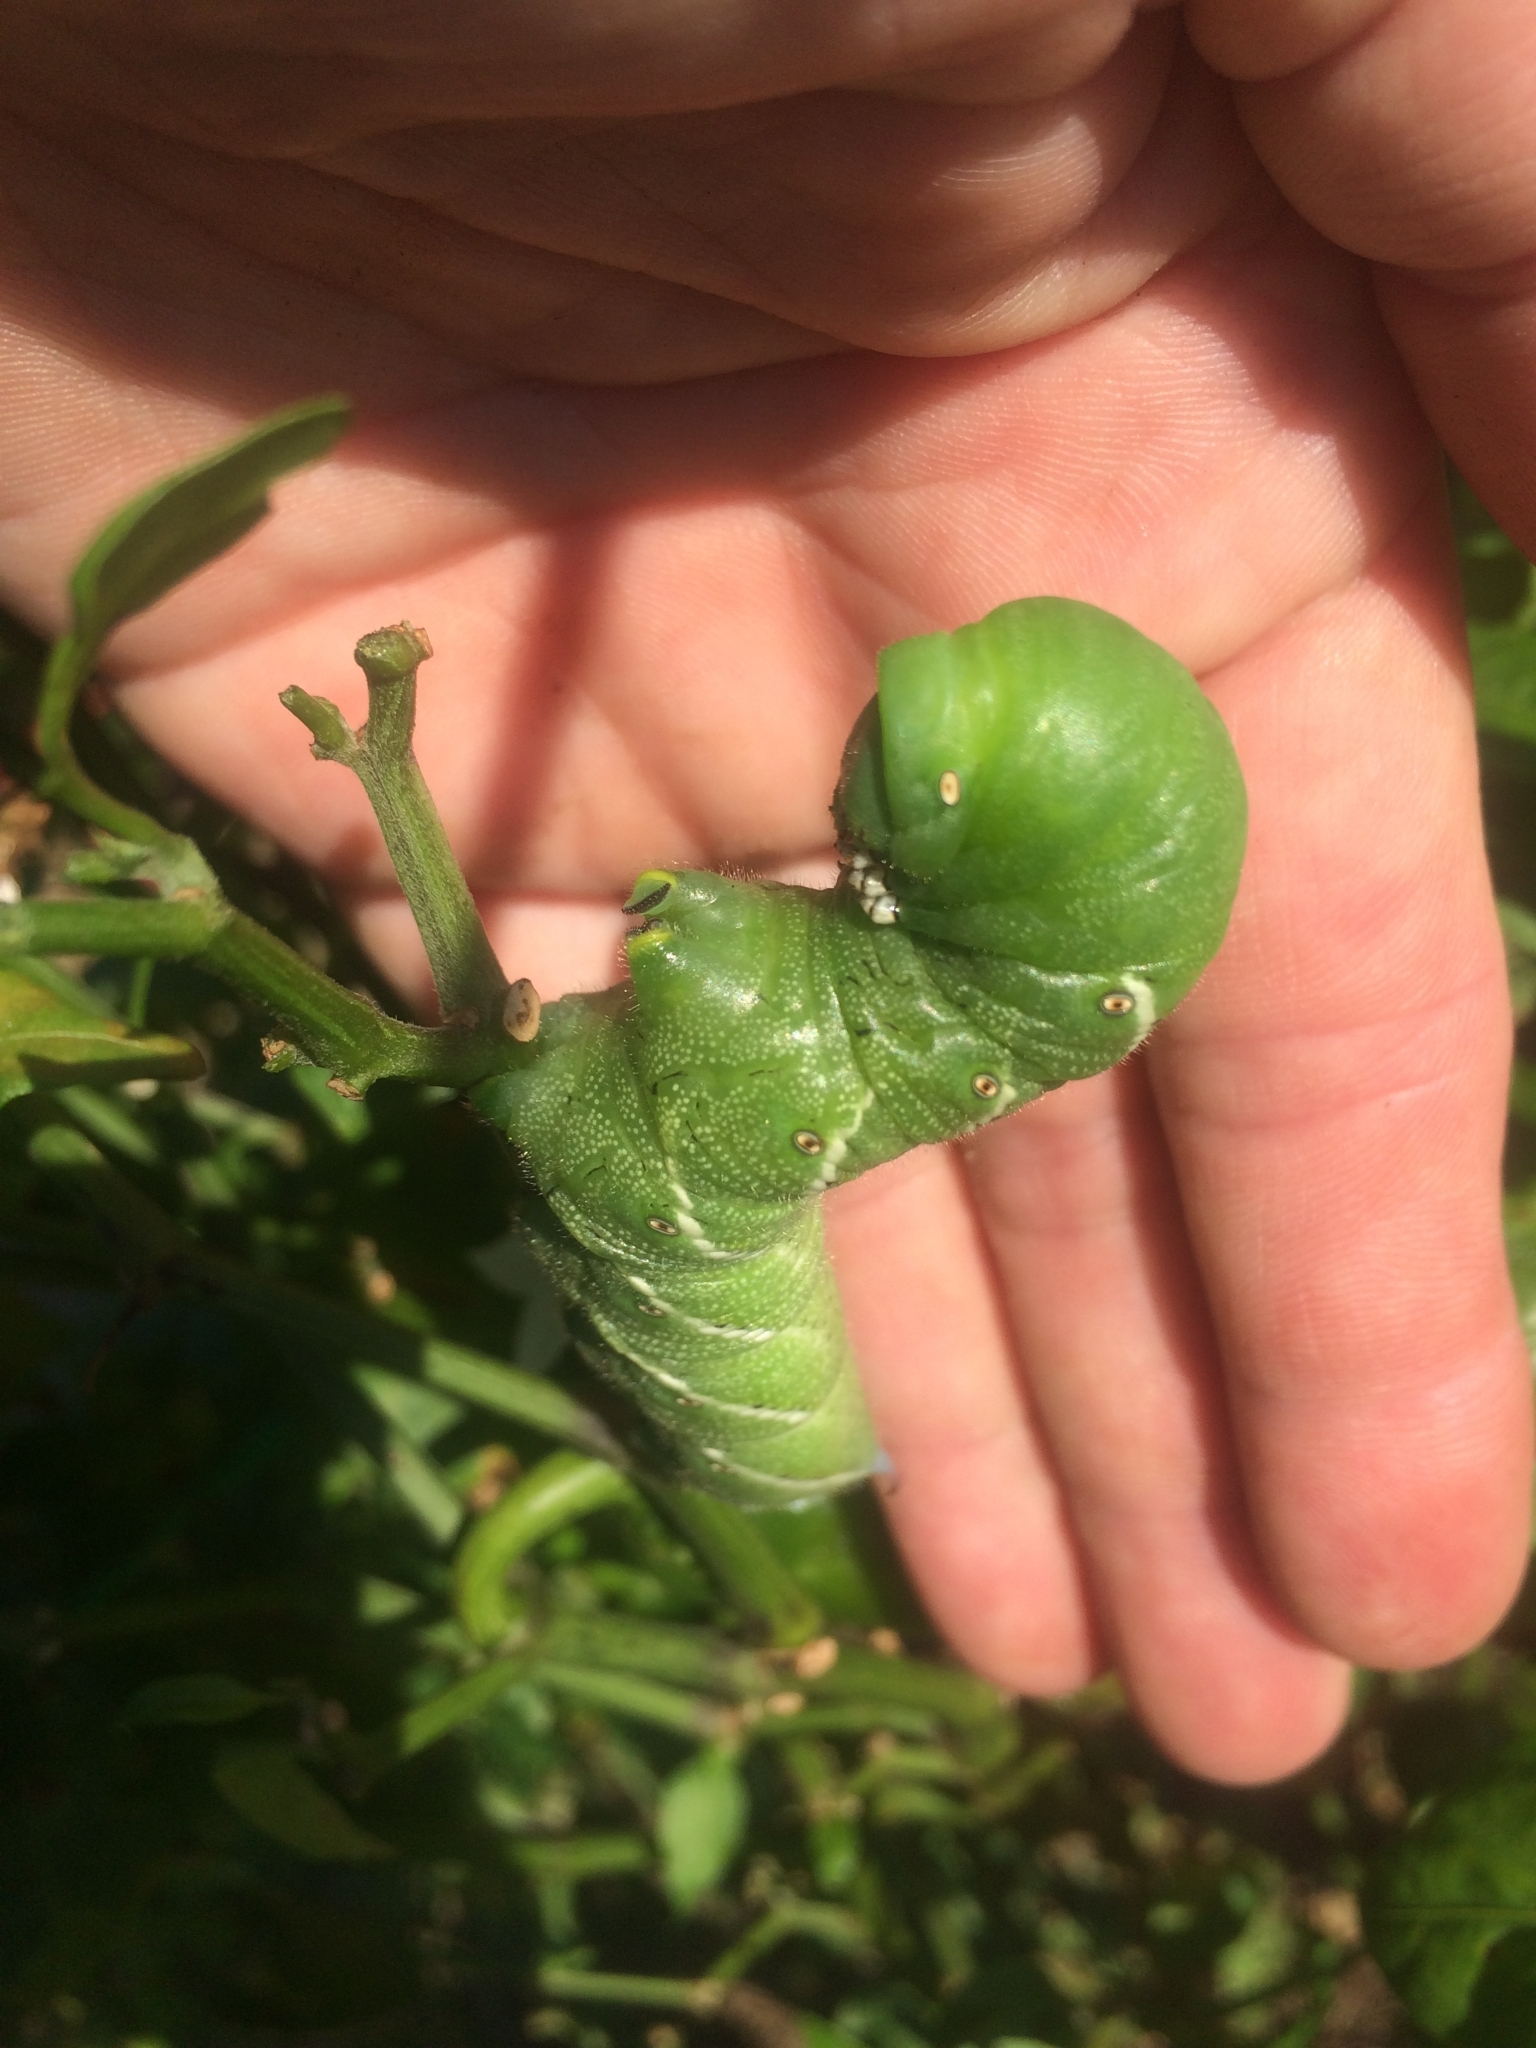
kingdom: Animalia
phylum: Arthropoda
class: Insecta
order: Lepidoptera
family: Sphingidae
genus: Manduca
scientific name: Manduca sexta
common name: Carolina sphinx
